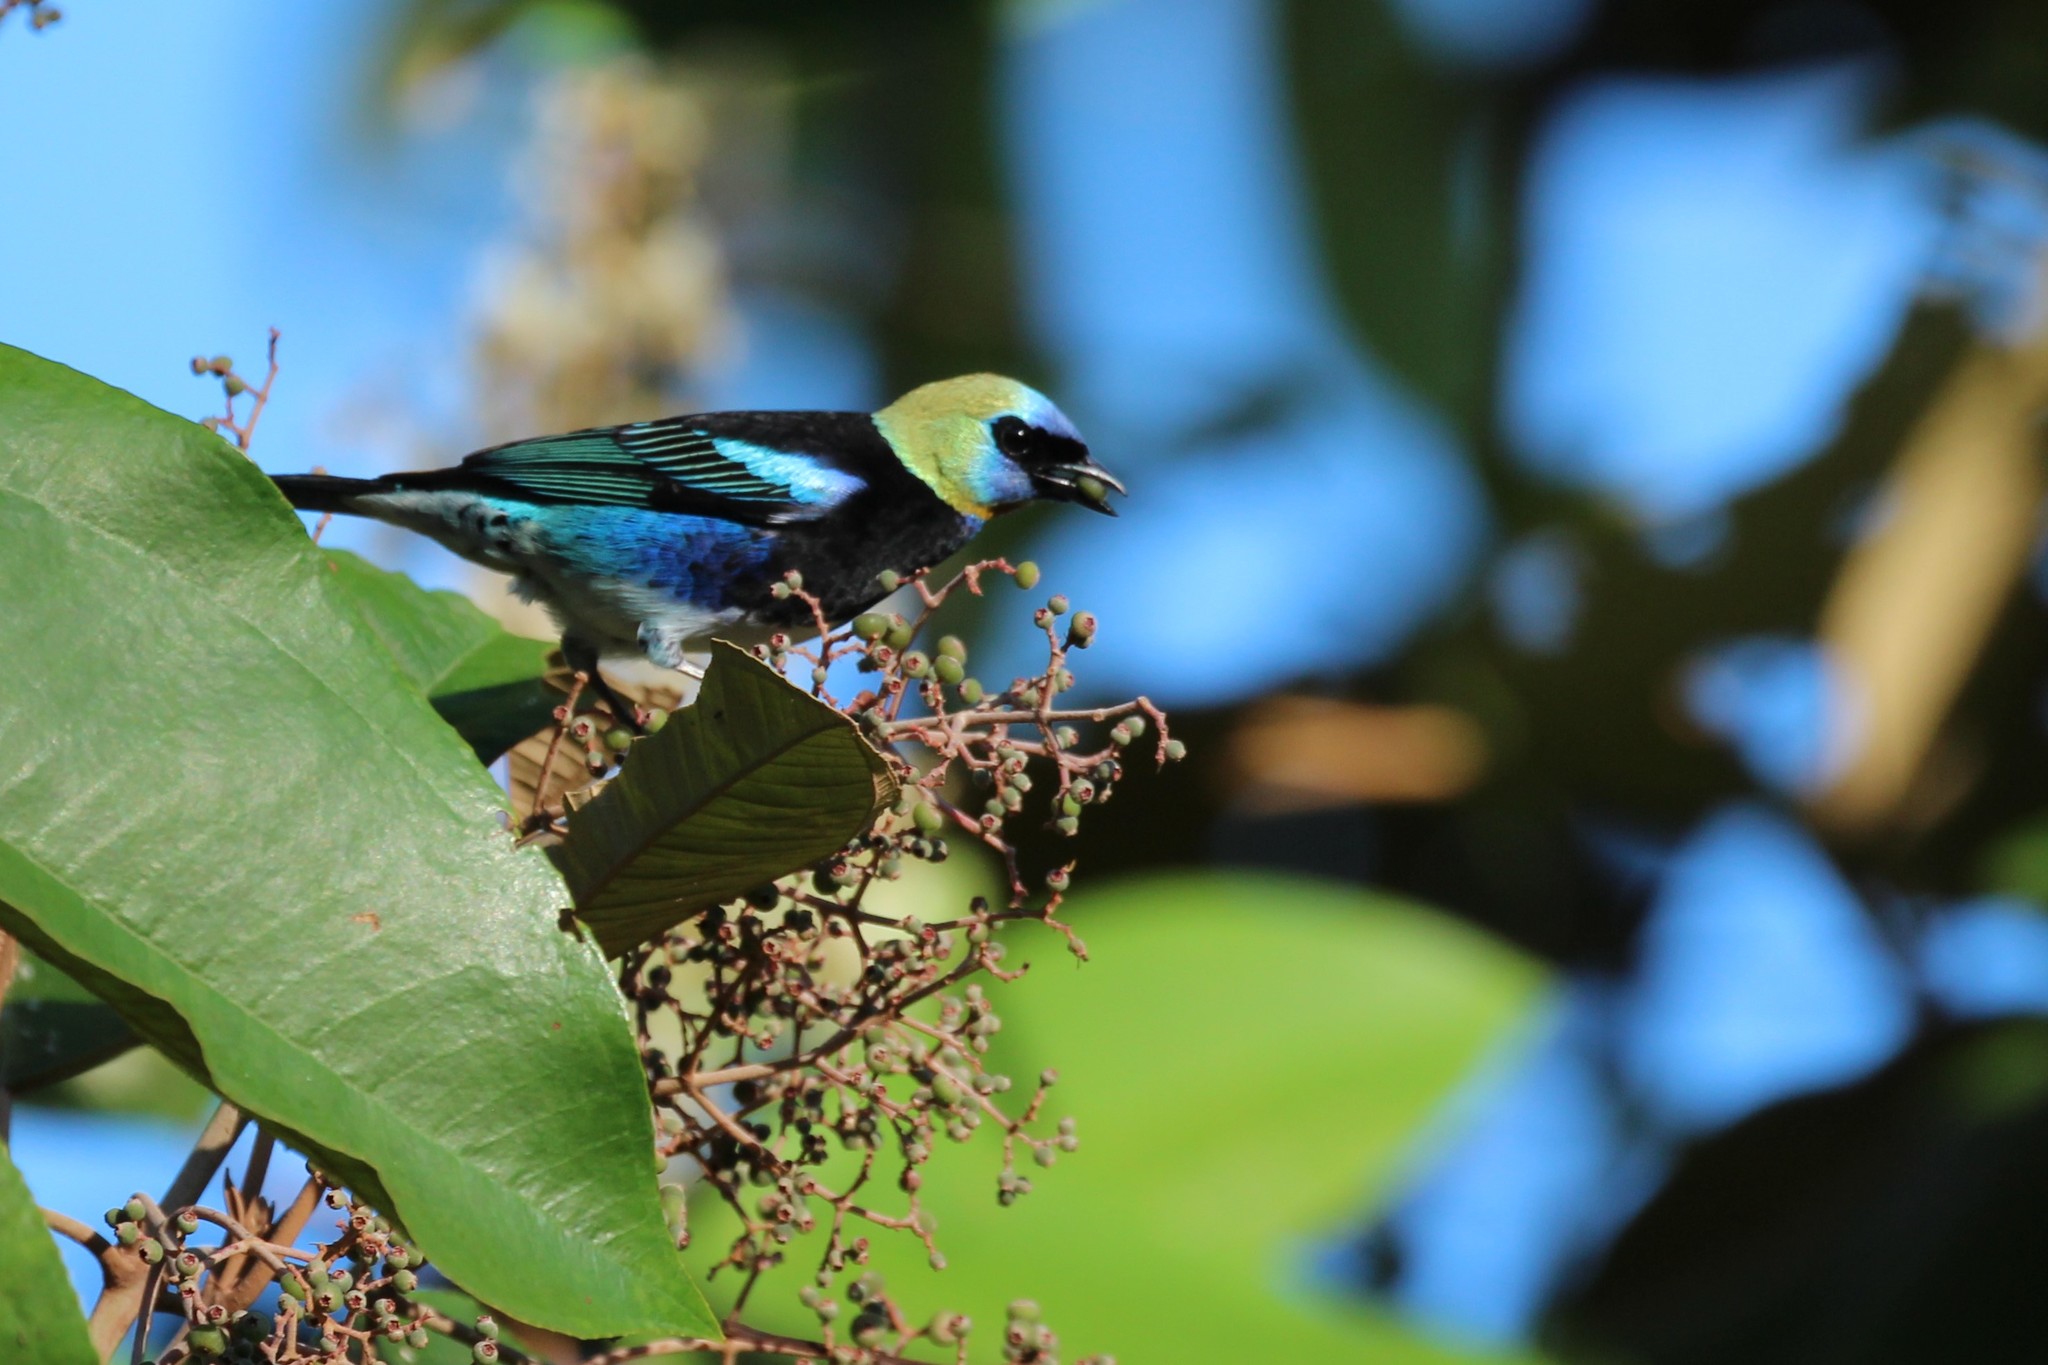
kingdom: Animalia
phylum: Chordata
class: Aves
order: Passeriformes
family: Thraupidae
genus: Stilpnia
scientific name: Stilpnia larvata
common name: Golden-hooded tanager
